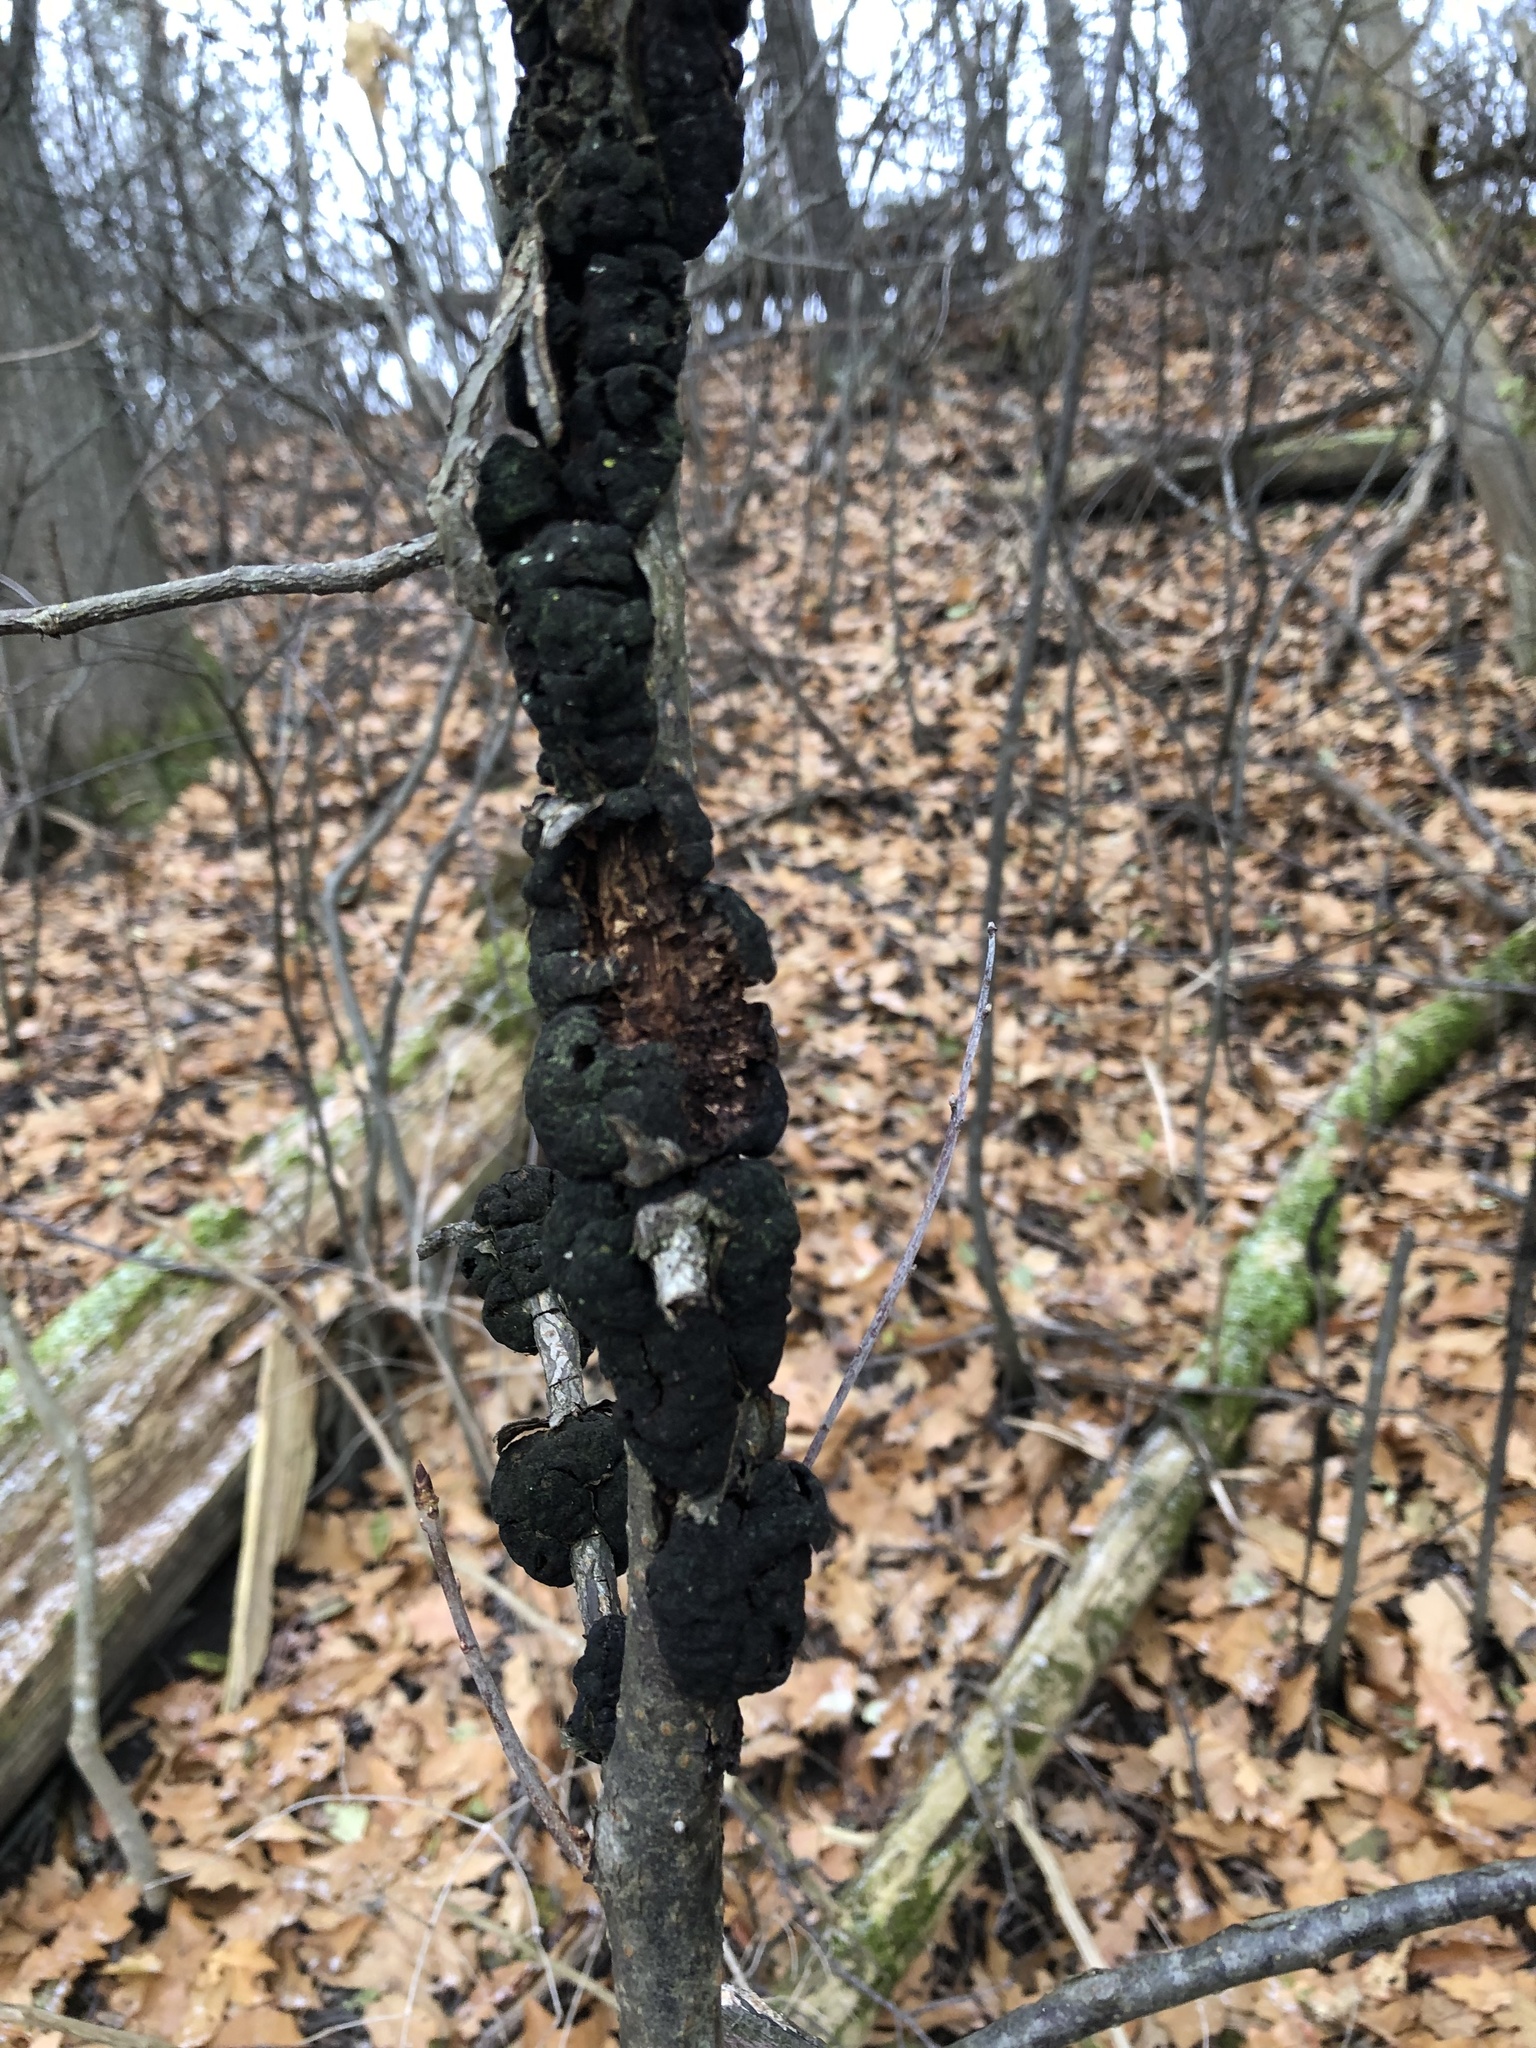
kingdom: Fungi
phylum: Ascomycota
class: Dothideomycetes
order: Venturiales
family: Venturiaceae
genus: Apiosporina
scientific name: Apiosporina morbosa
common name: Black knot
